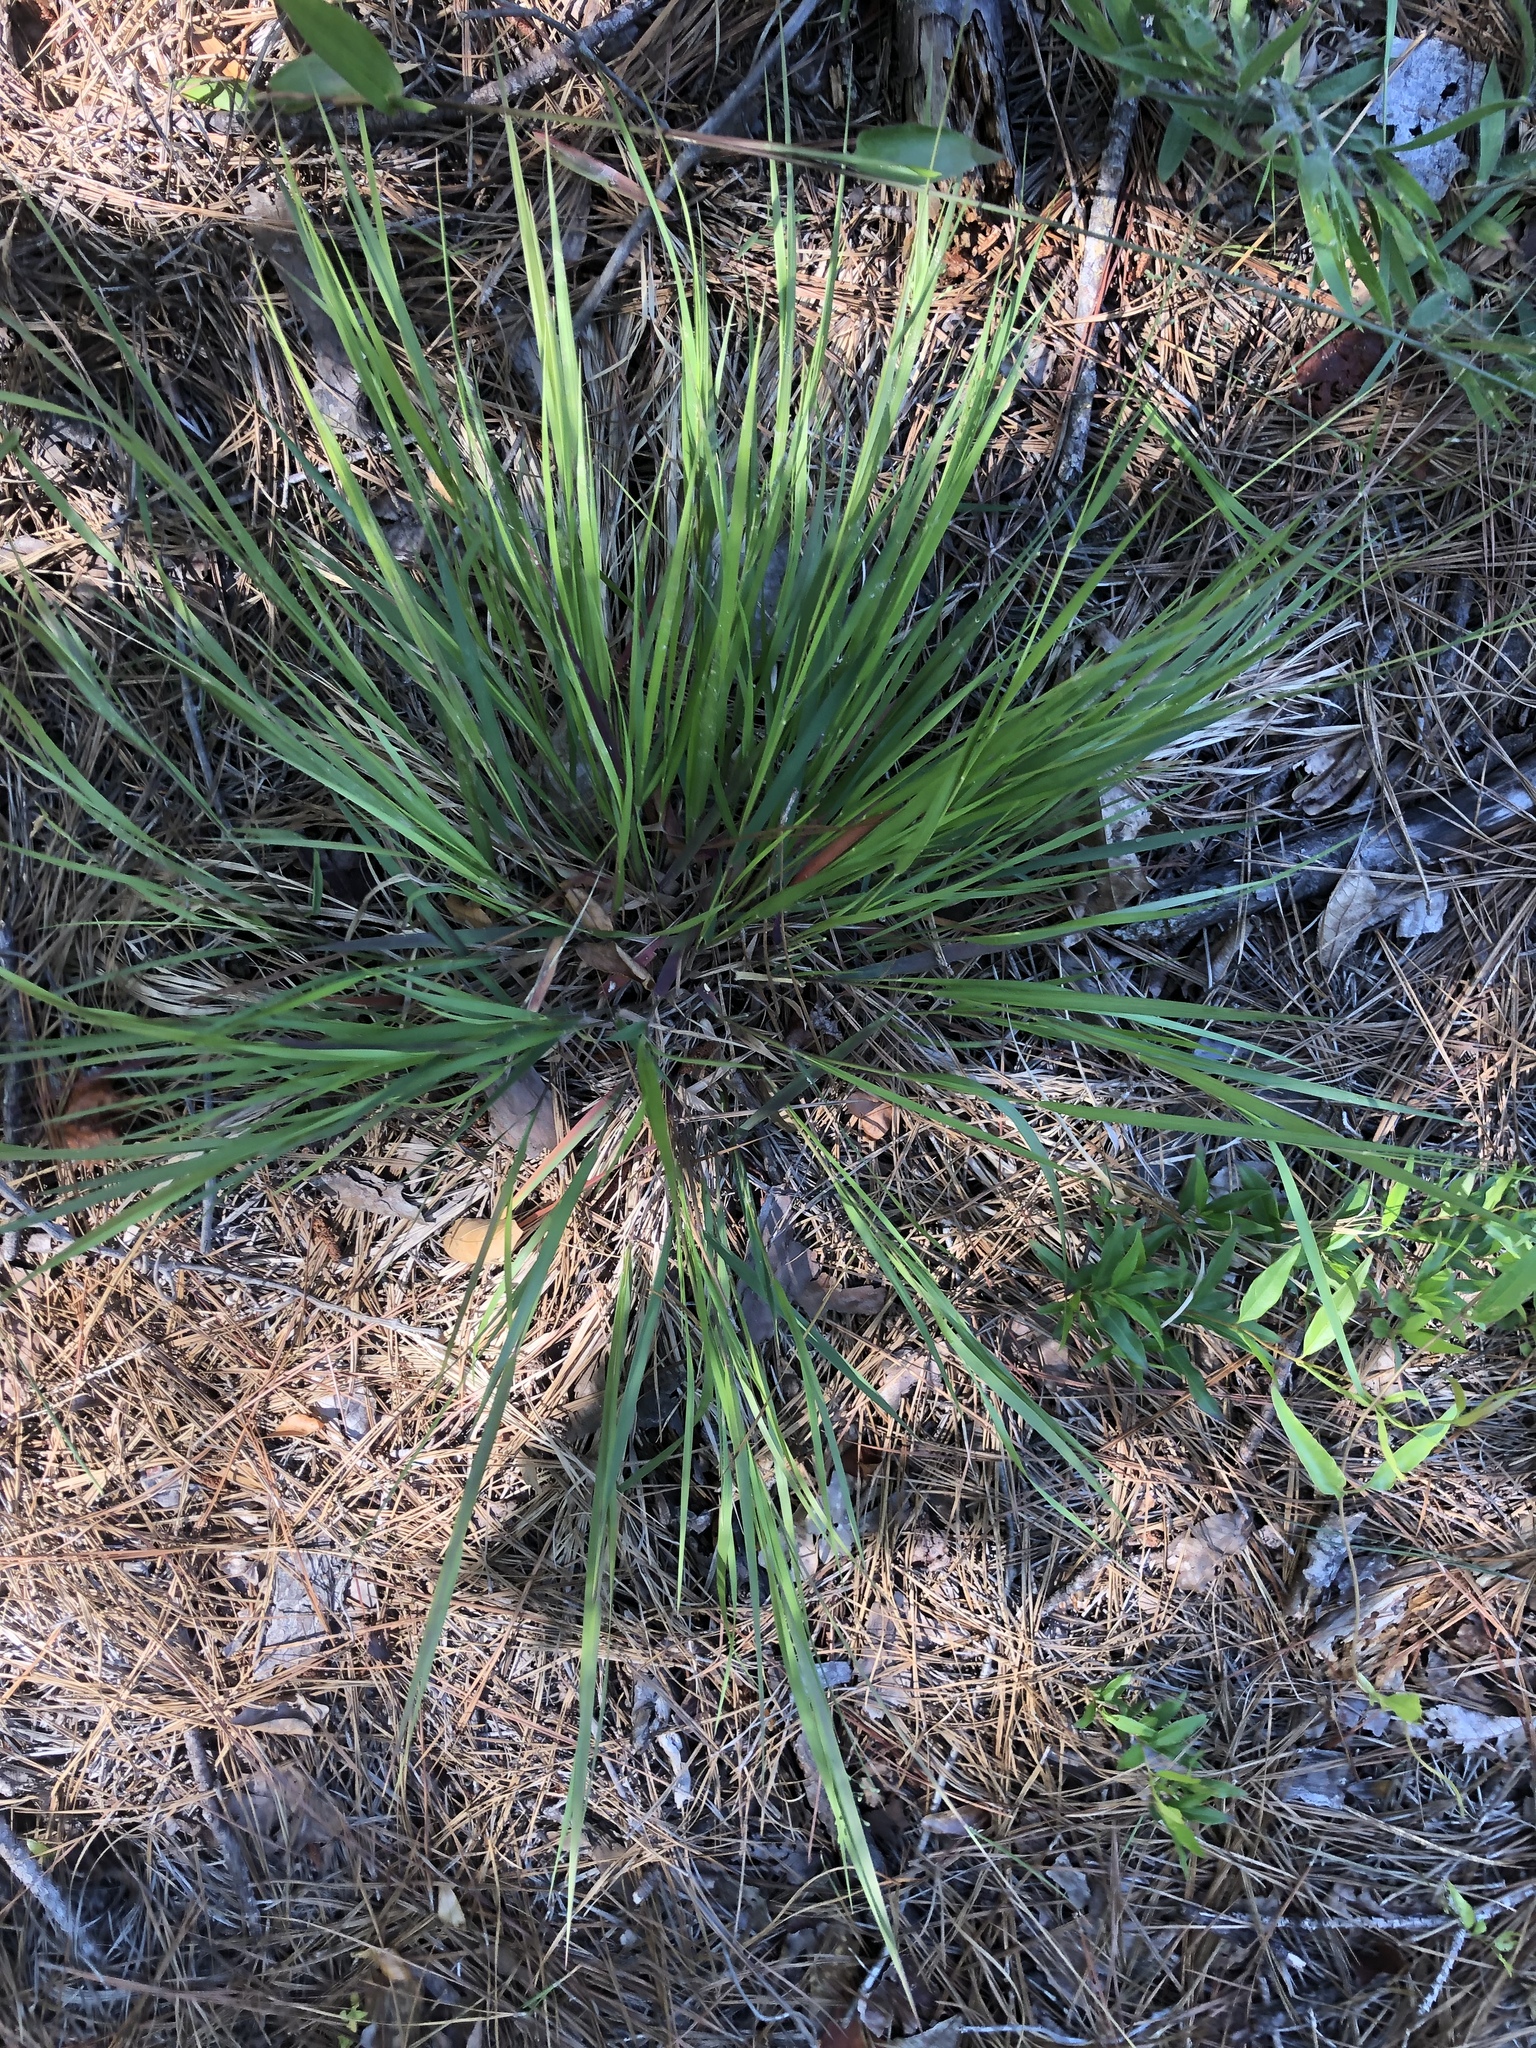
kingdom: Plantae
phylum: Tracheophyta
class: Liliopsida
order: Poales
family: Poaceae
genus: Dichanthelium
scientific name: Dichanthelium angustifolium
